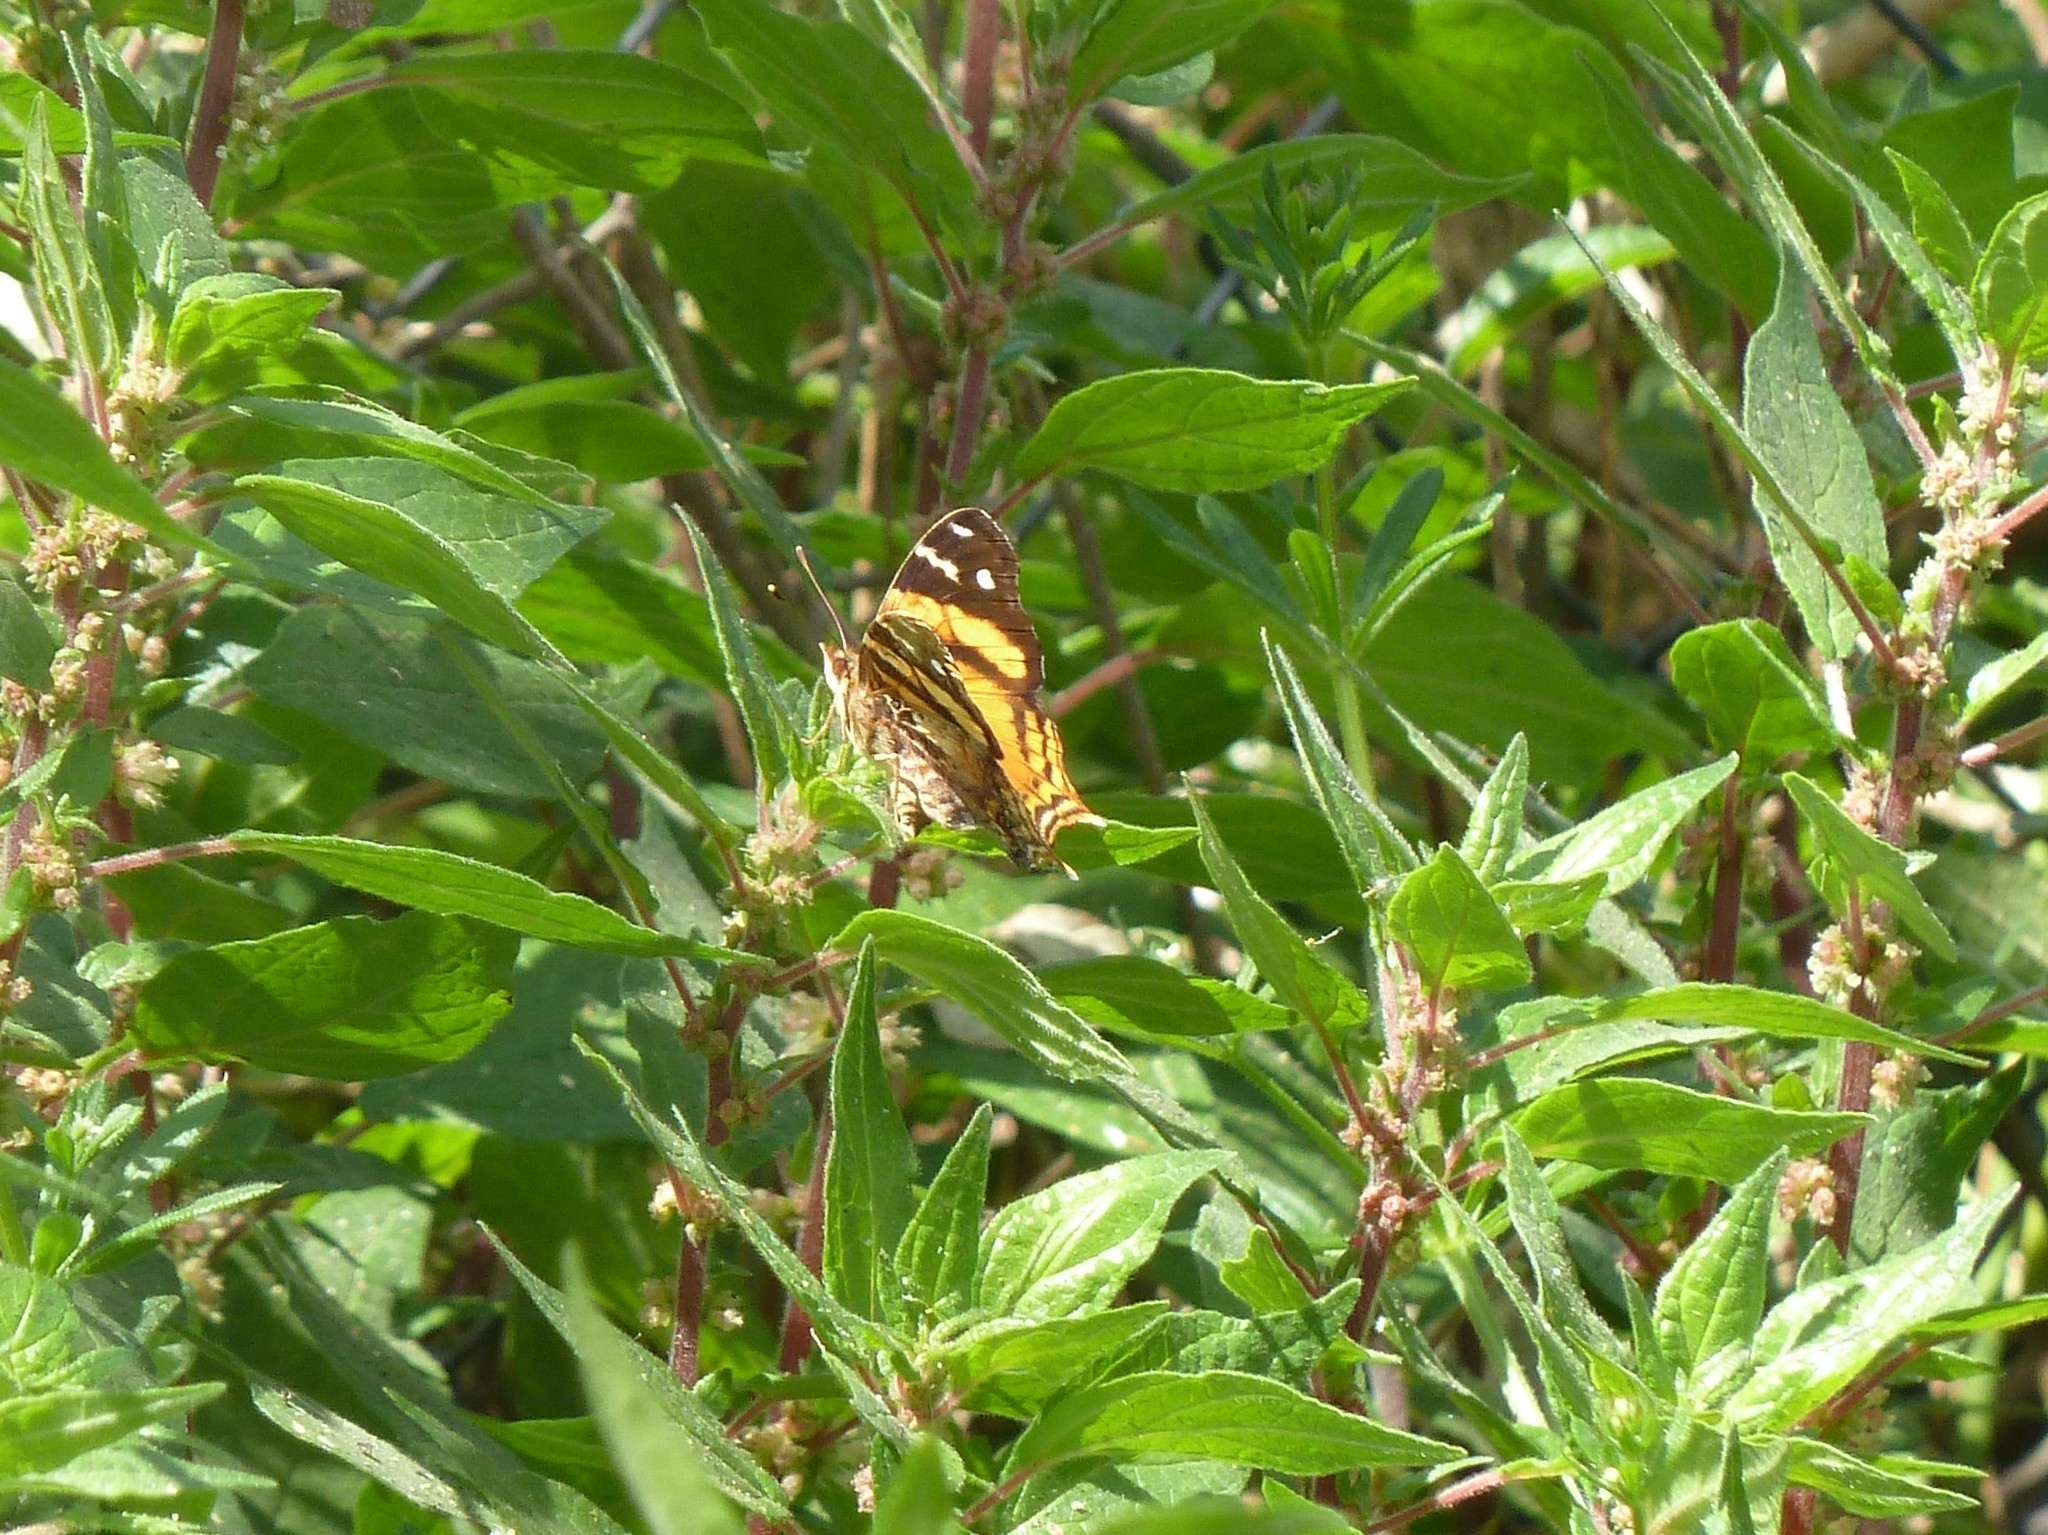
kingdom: Animalia
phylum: Arthropoda
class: Insecta
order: Lepidoptera
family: Nymphalidae
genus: Hypanartia
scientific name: Hypanartia bella
